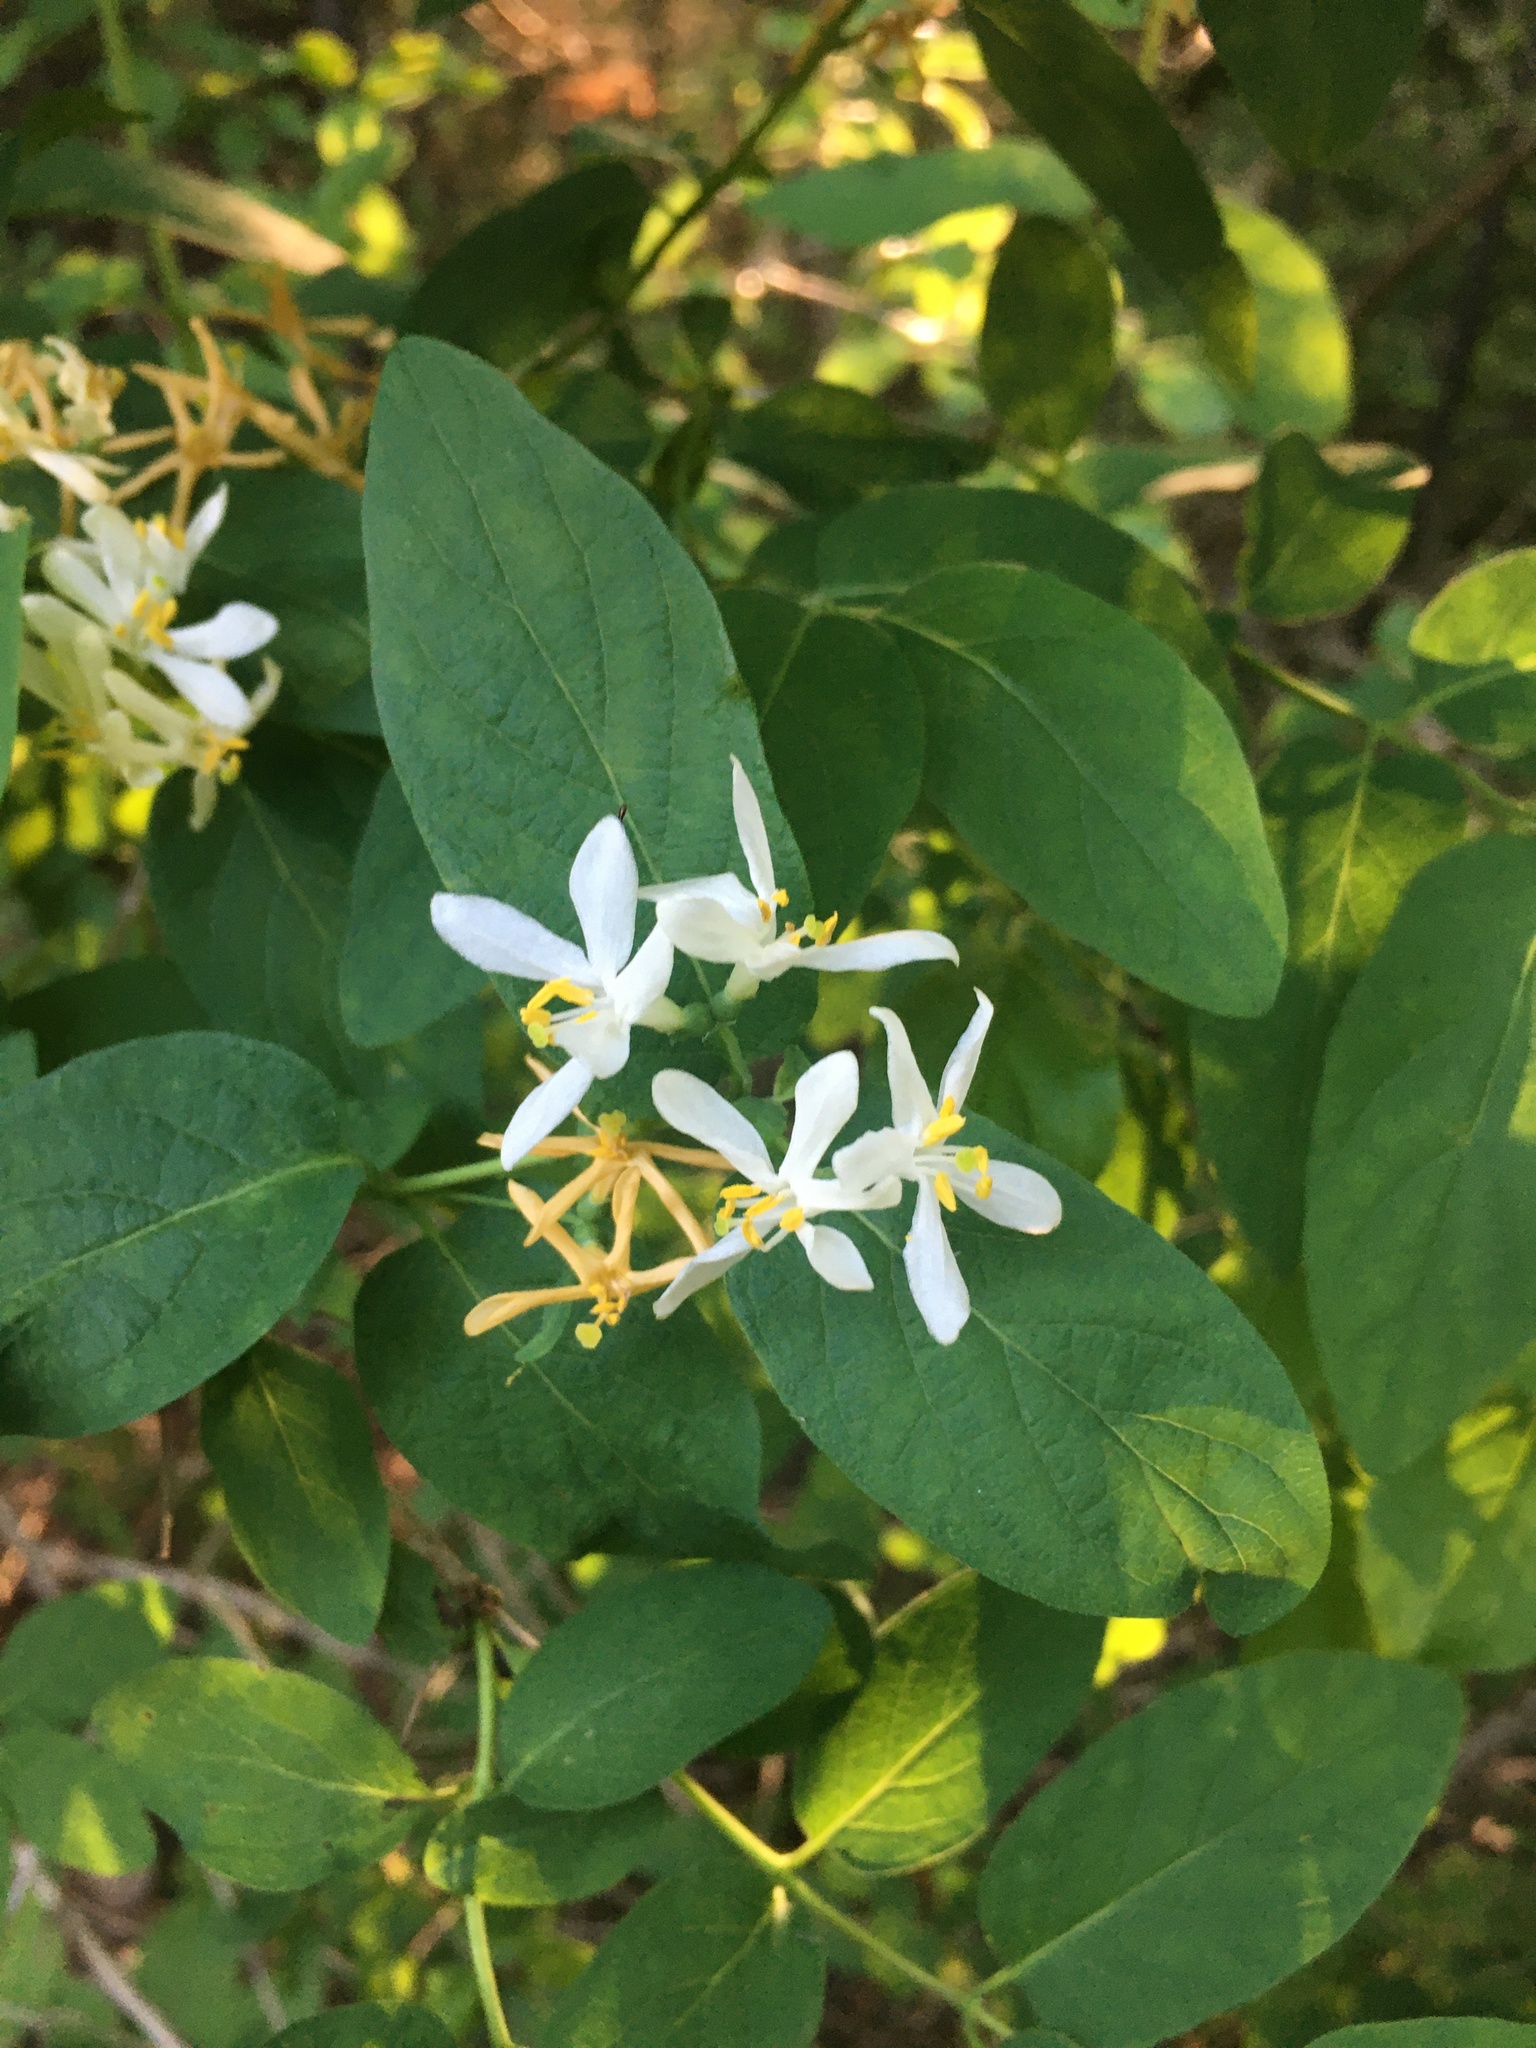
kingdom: Plantae
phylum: Tracheophyta
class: Magnoliopsida
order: Dipsacales
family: Caprifoliaceae
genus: Lonicera
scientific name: Lonicera morrowii
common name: Morrow's honeysuckle
